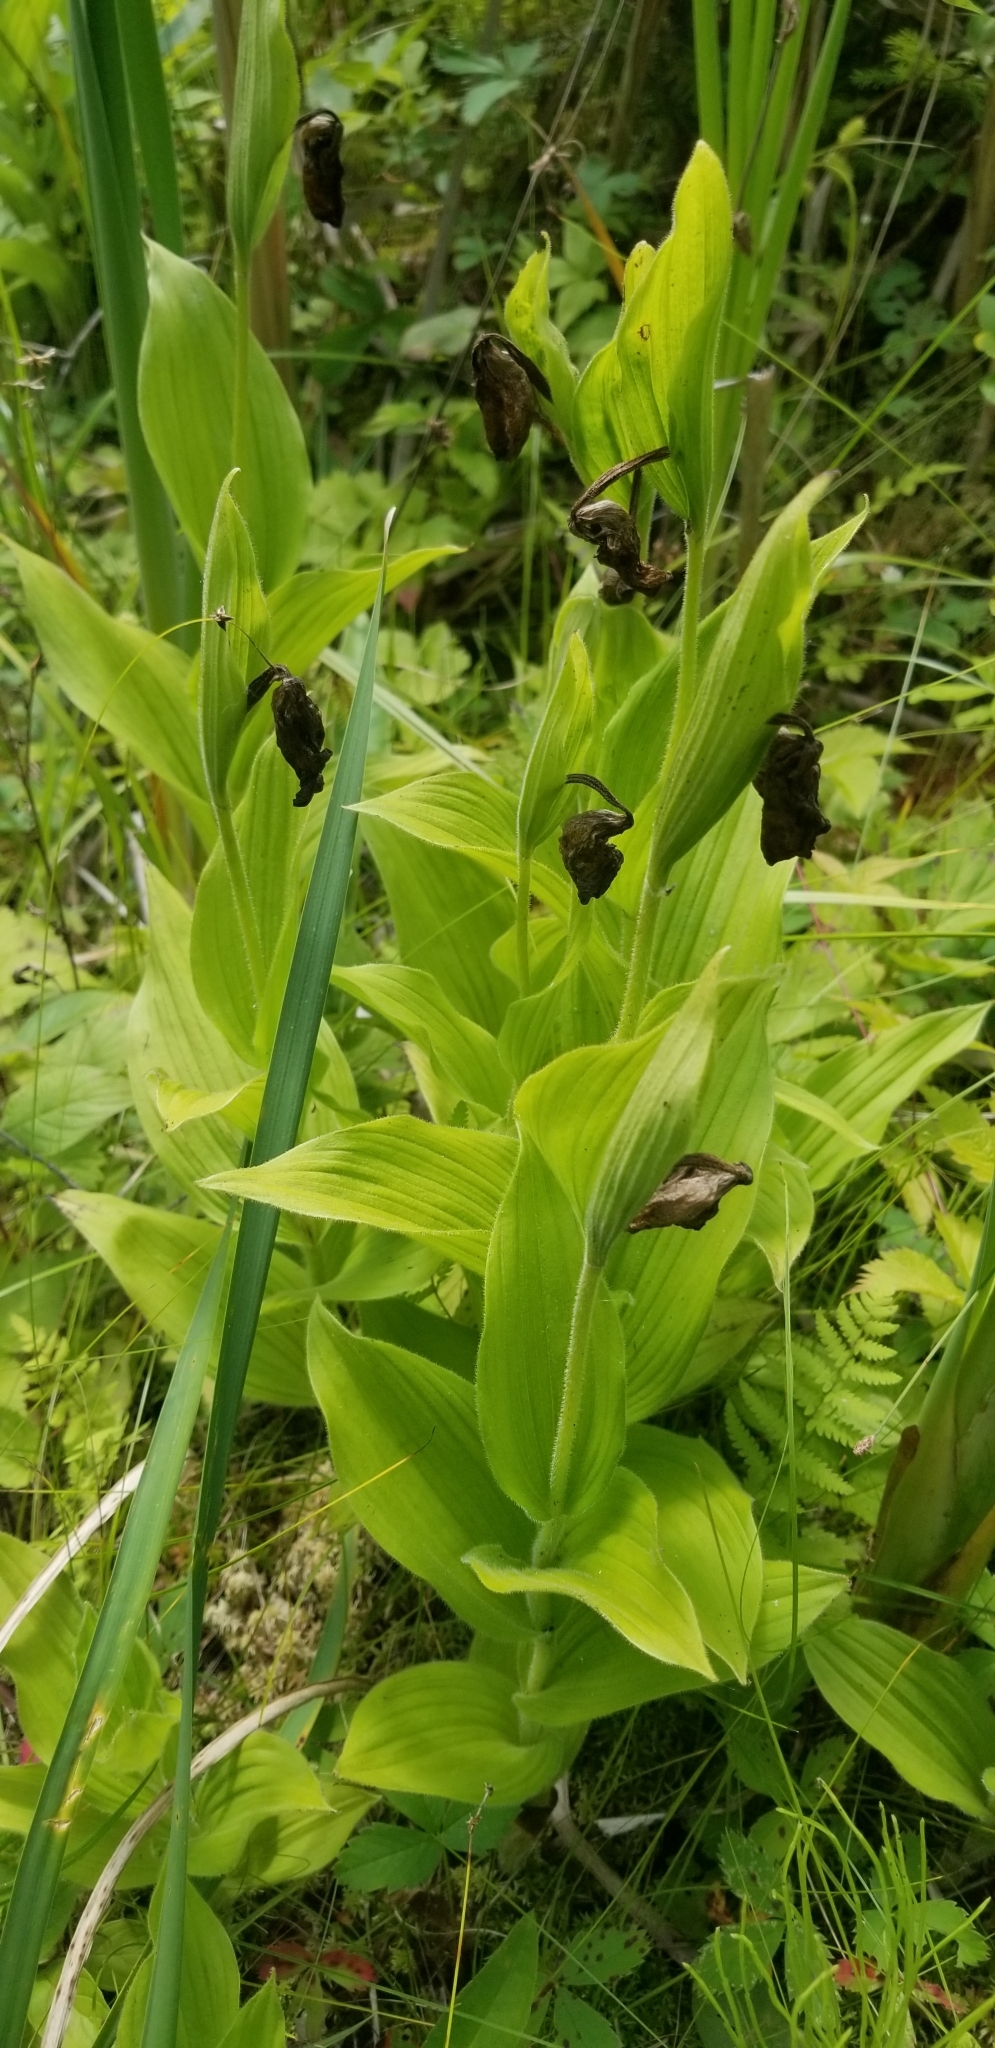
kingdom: Plantae
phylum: Tracheophyta
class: Liliopsida
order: Asparagales
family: Orchidaceae
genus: Cypripedium
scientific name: Cypripedium reginae
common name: Queen lady's-slipper
